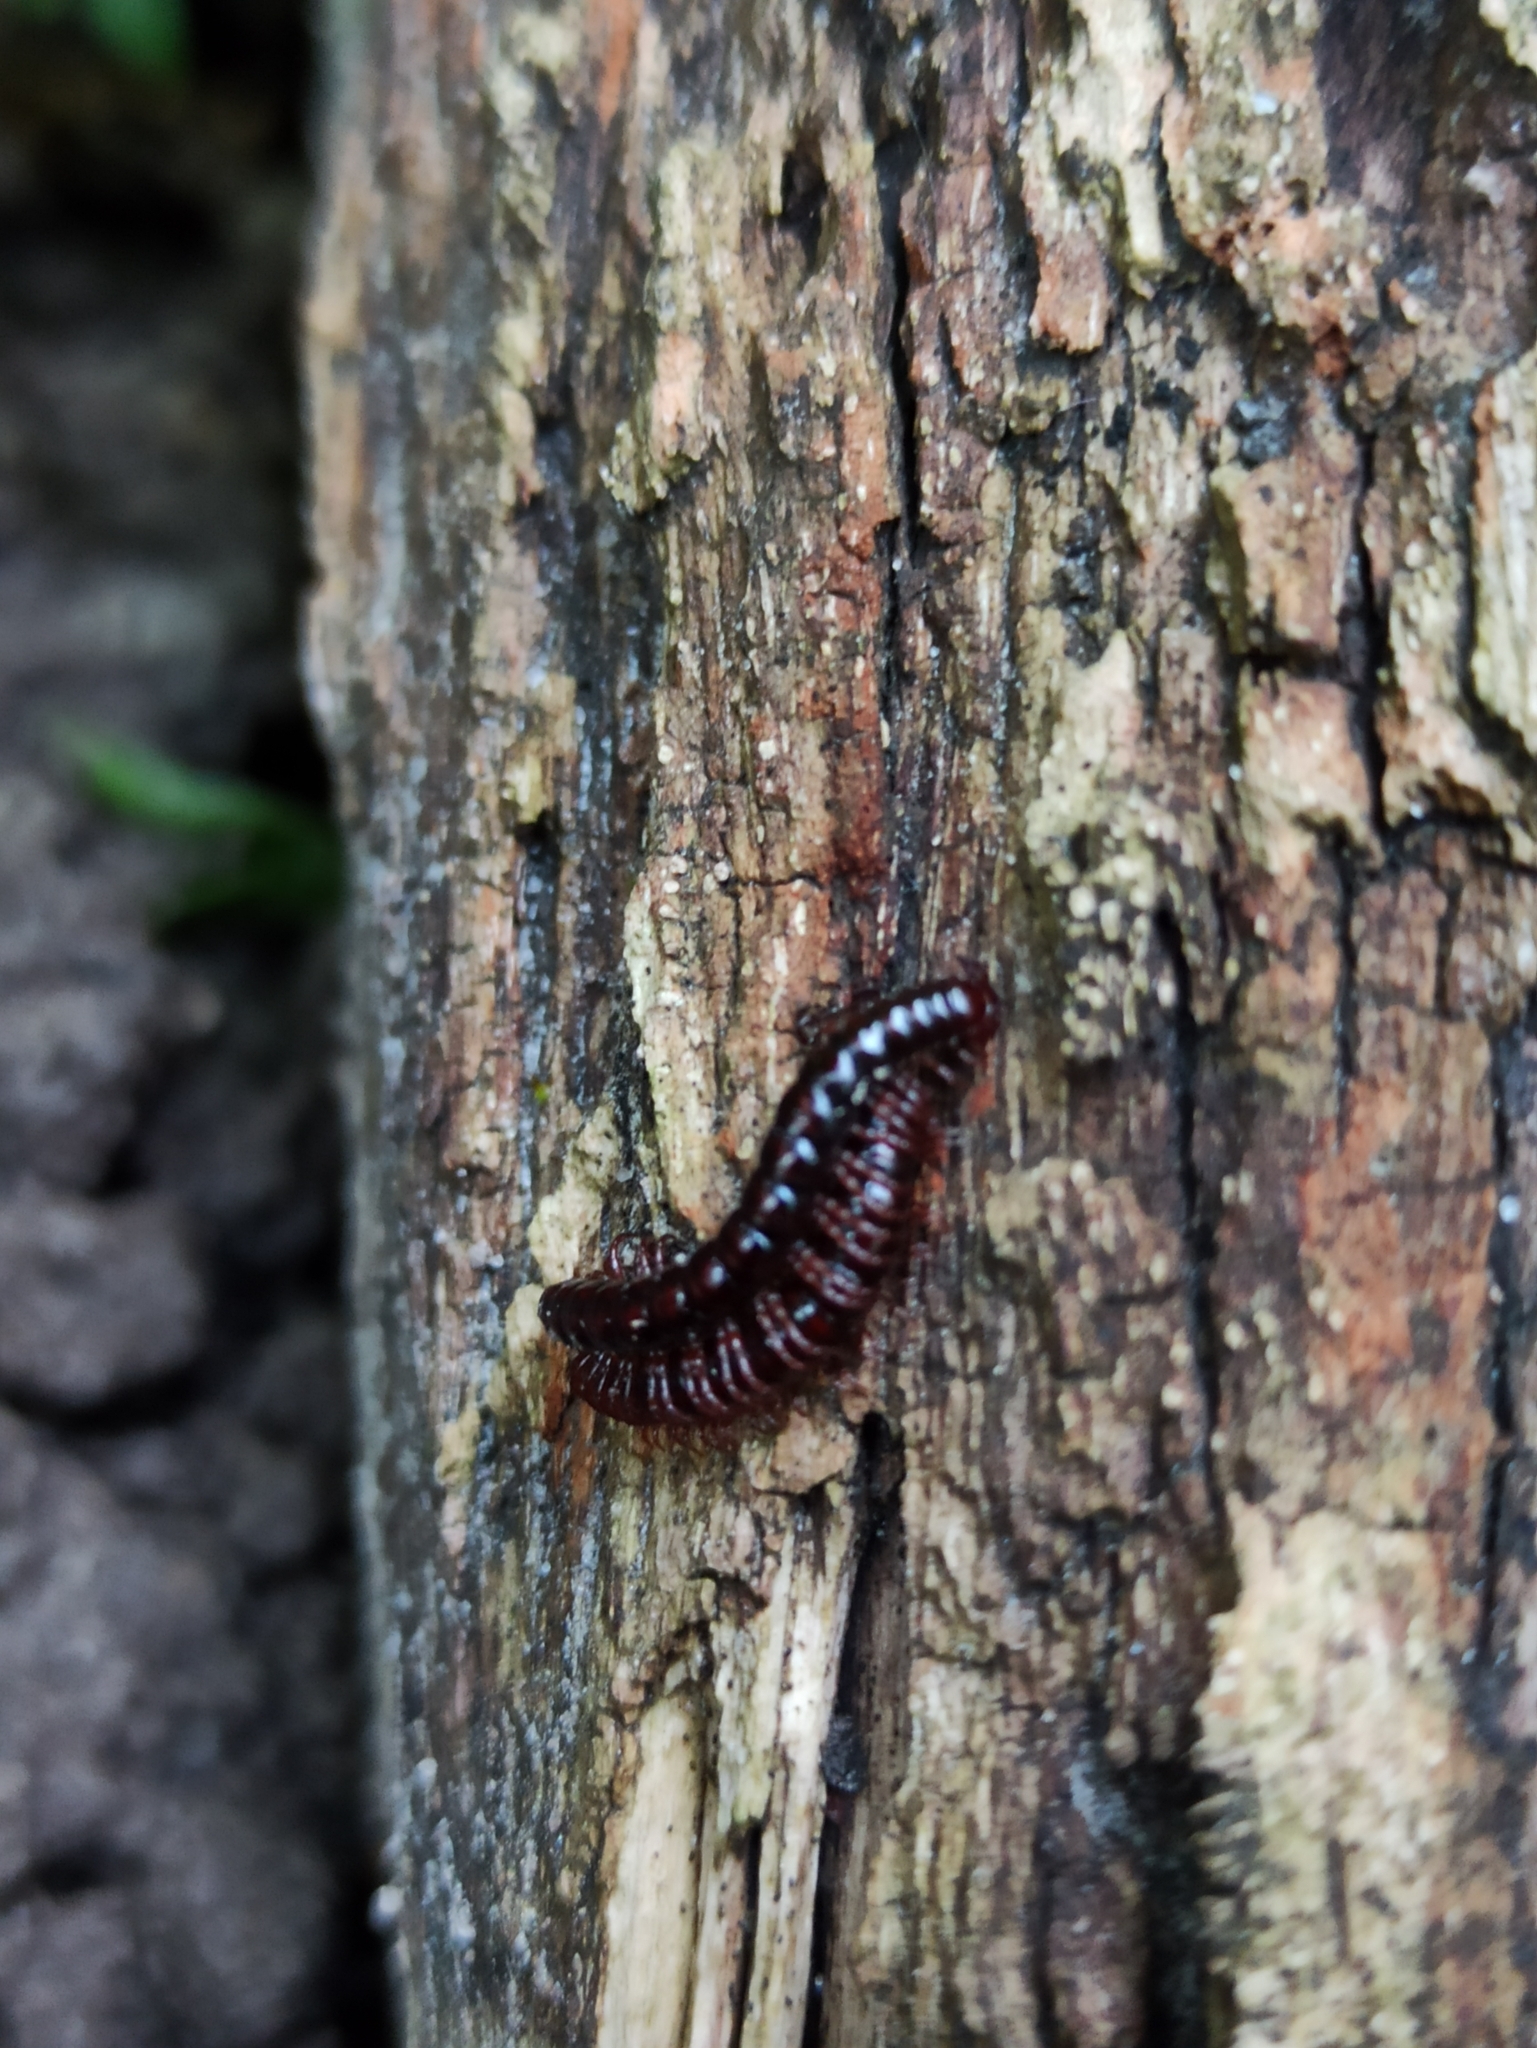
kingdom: Animalia
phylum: Arthropoda
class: Diplopoda
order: Polydesmida
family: Paradoxosomatidae
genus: Strongylosoma
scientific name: Strongylosoma stigmatosus
